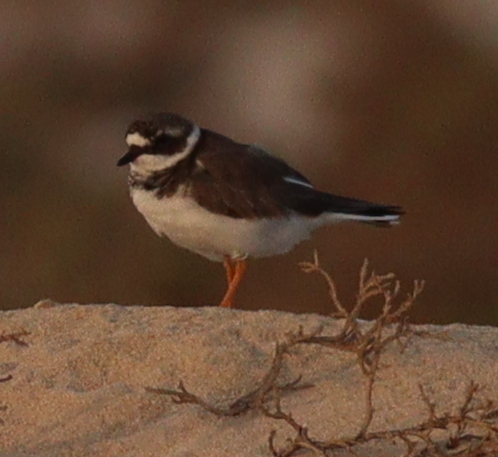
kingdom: Animalia
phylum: Chordata
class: Aves
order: Charadriiformes
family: Charadriidae
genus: Charadrius
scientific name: Charadrius hiaticula
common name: Common ringed plover
